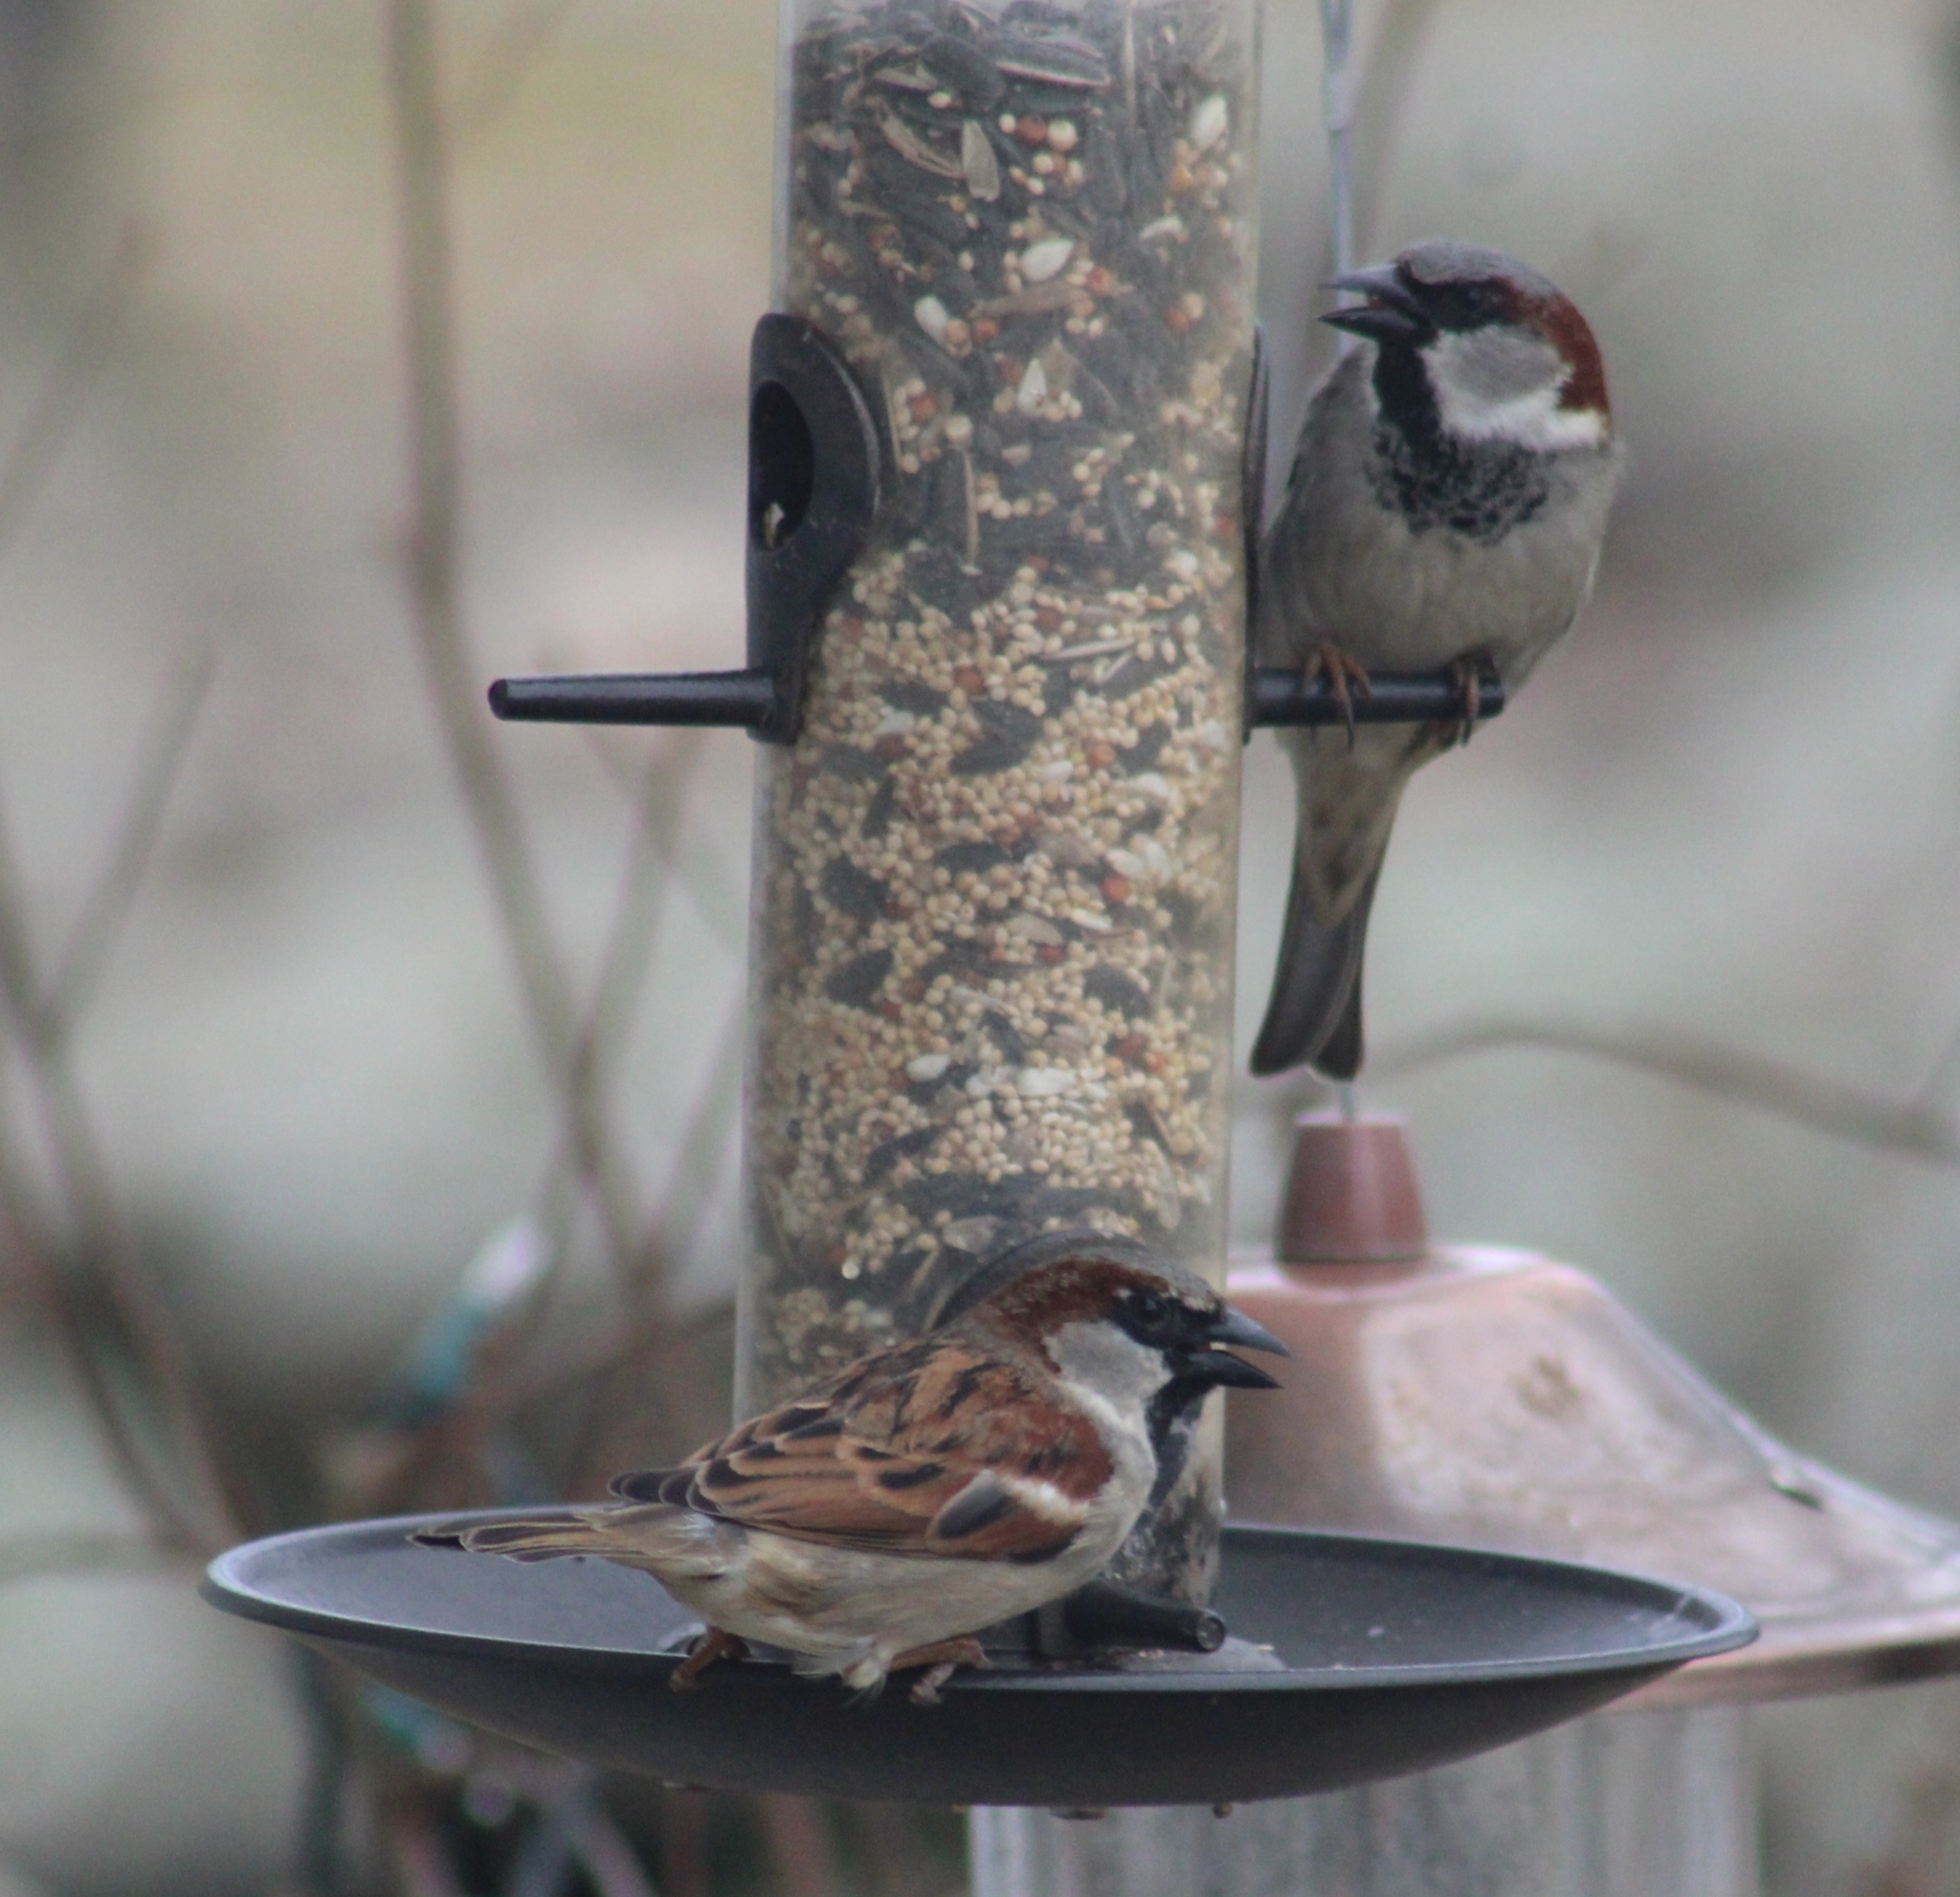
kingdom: Animalia
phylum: Chordata
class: Aves
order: Passeriformes
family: Passeridae
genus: Passer
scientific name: Passer domesticus
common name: House sparrow
